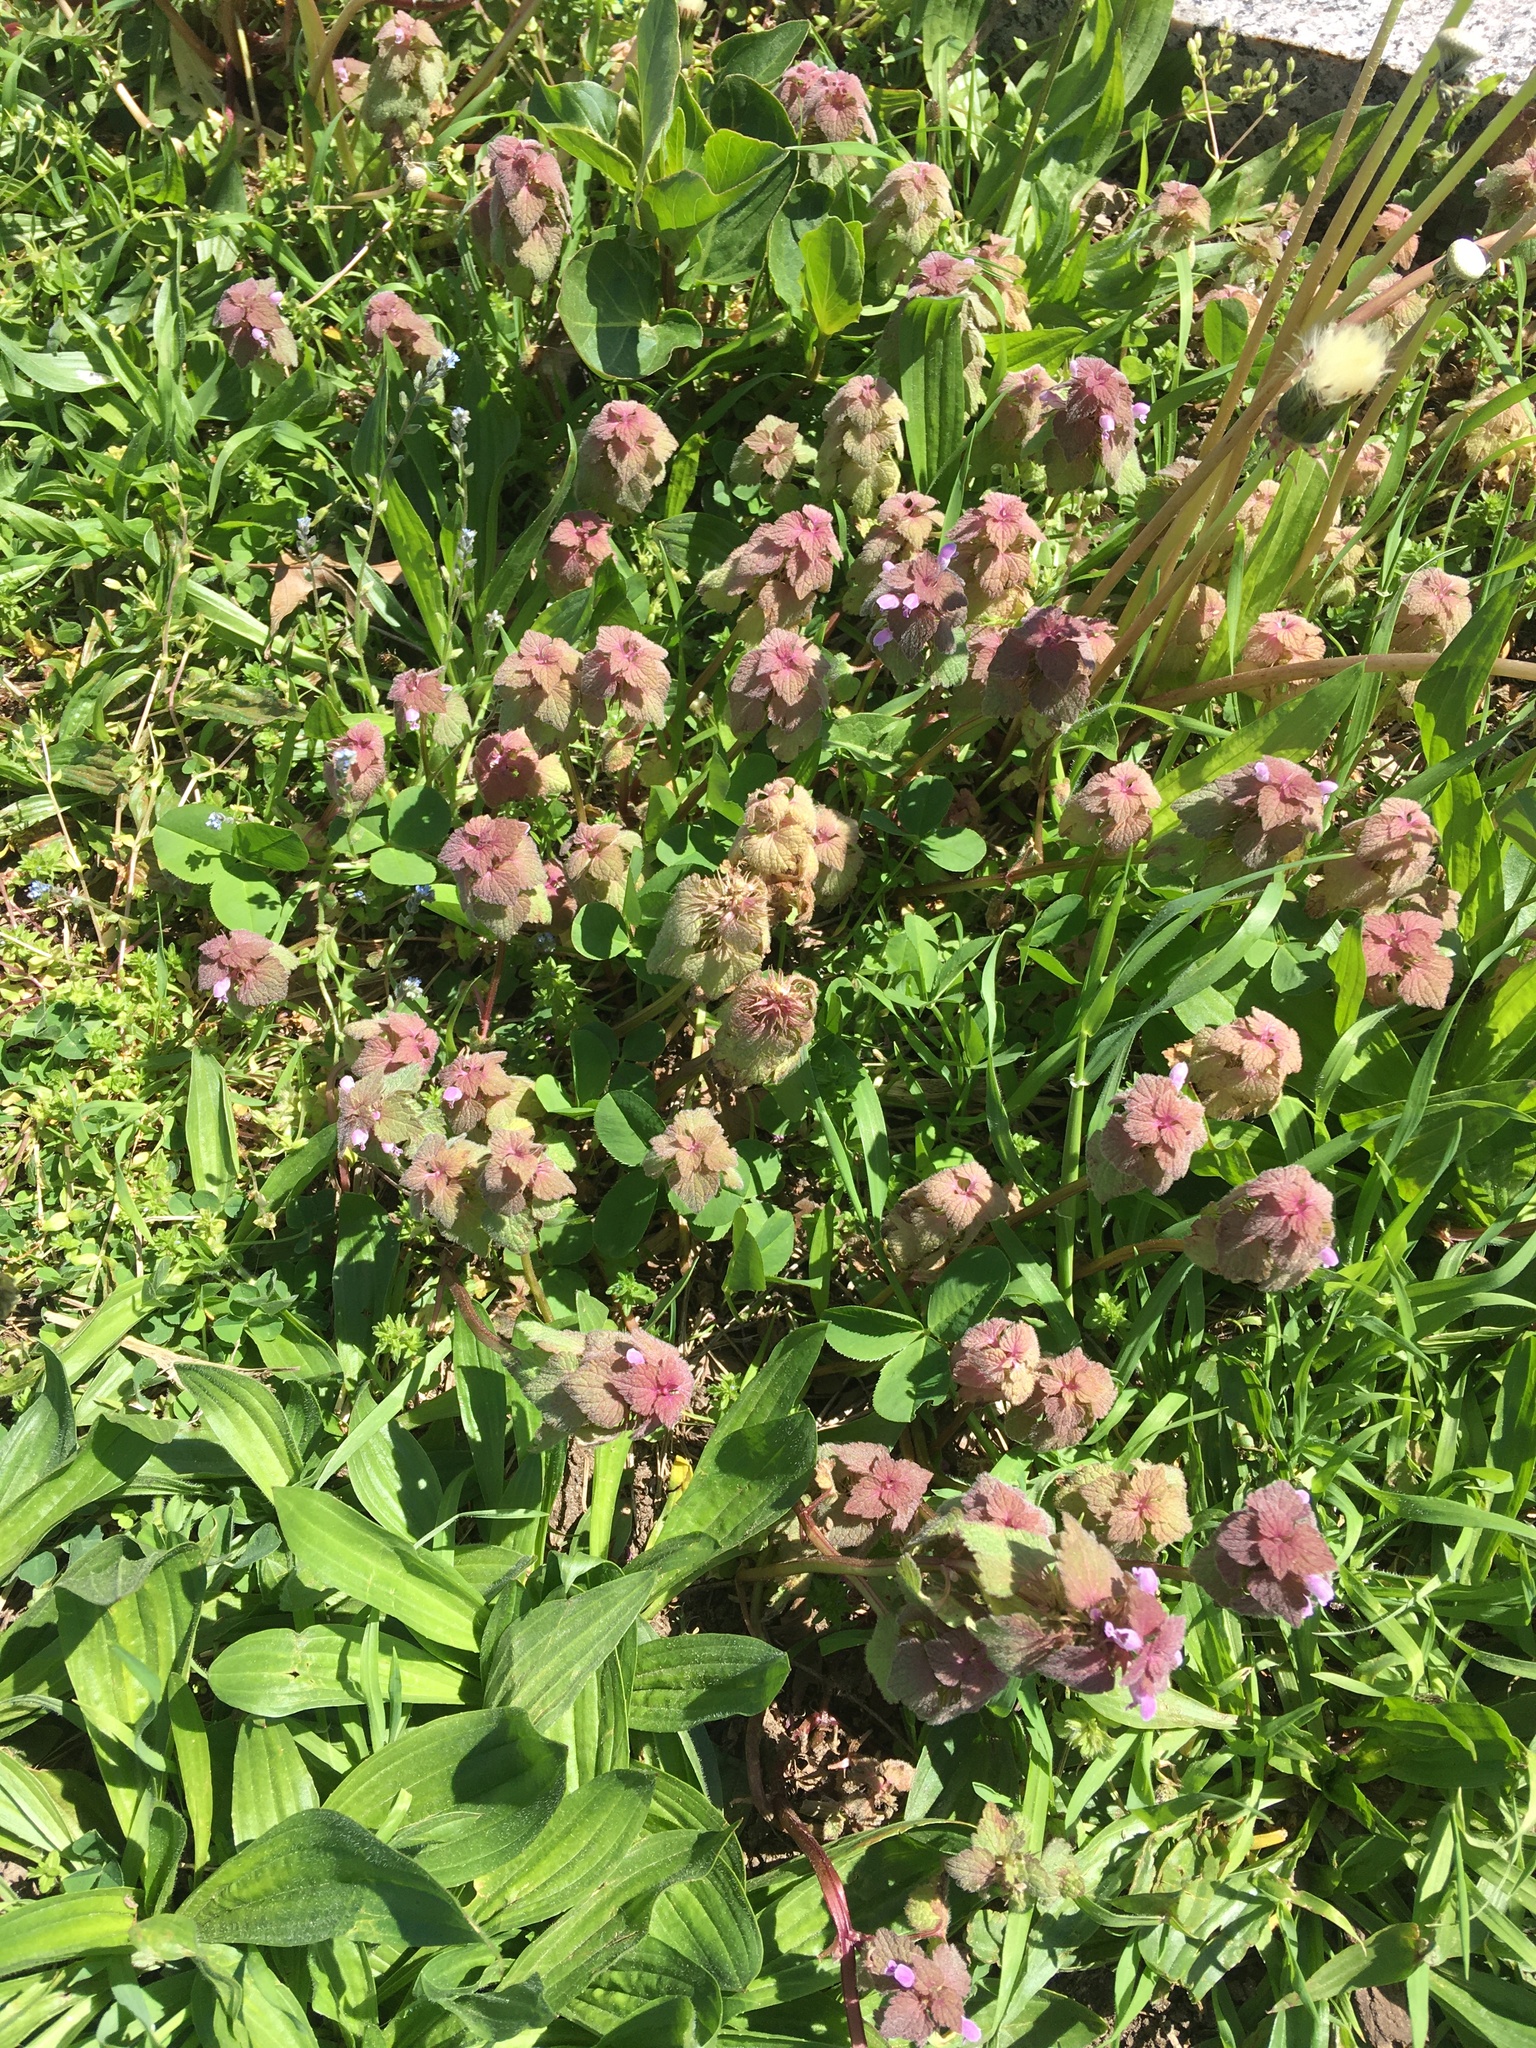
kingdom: Plantae
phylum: Tracheophyta
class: Magnoliopsida
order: Lamiales
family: Lamiaceae
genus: Lamium
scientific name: Lamium purpureum
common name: Red dead-nettle
